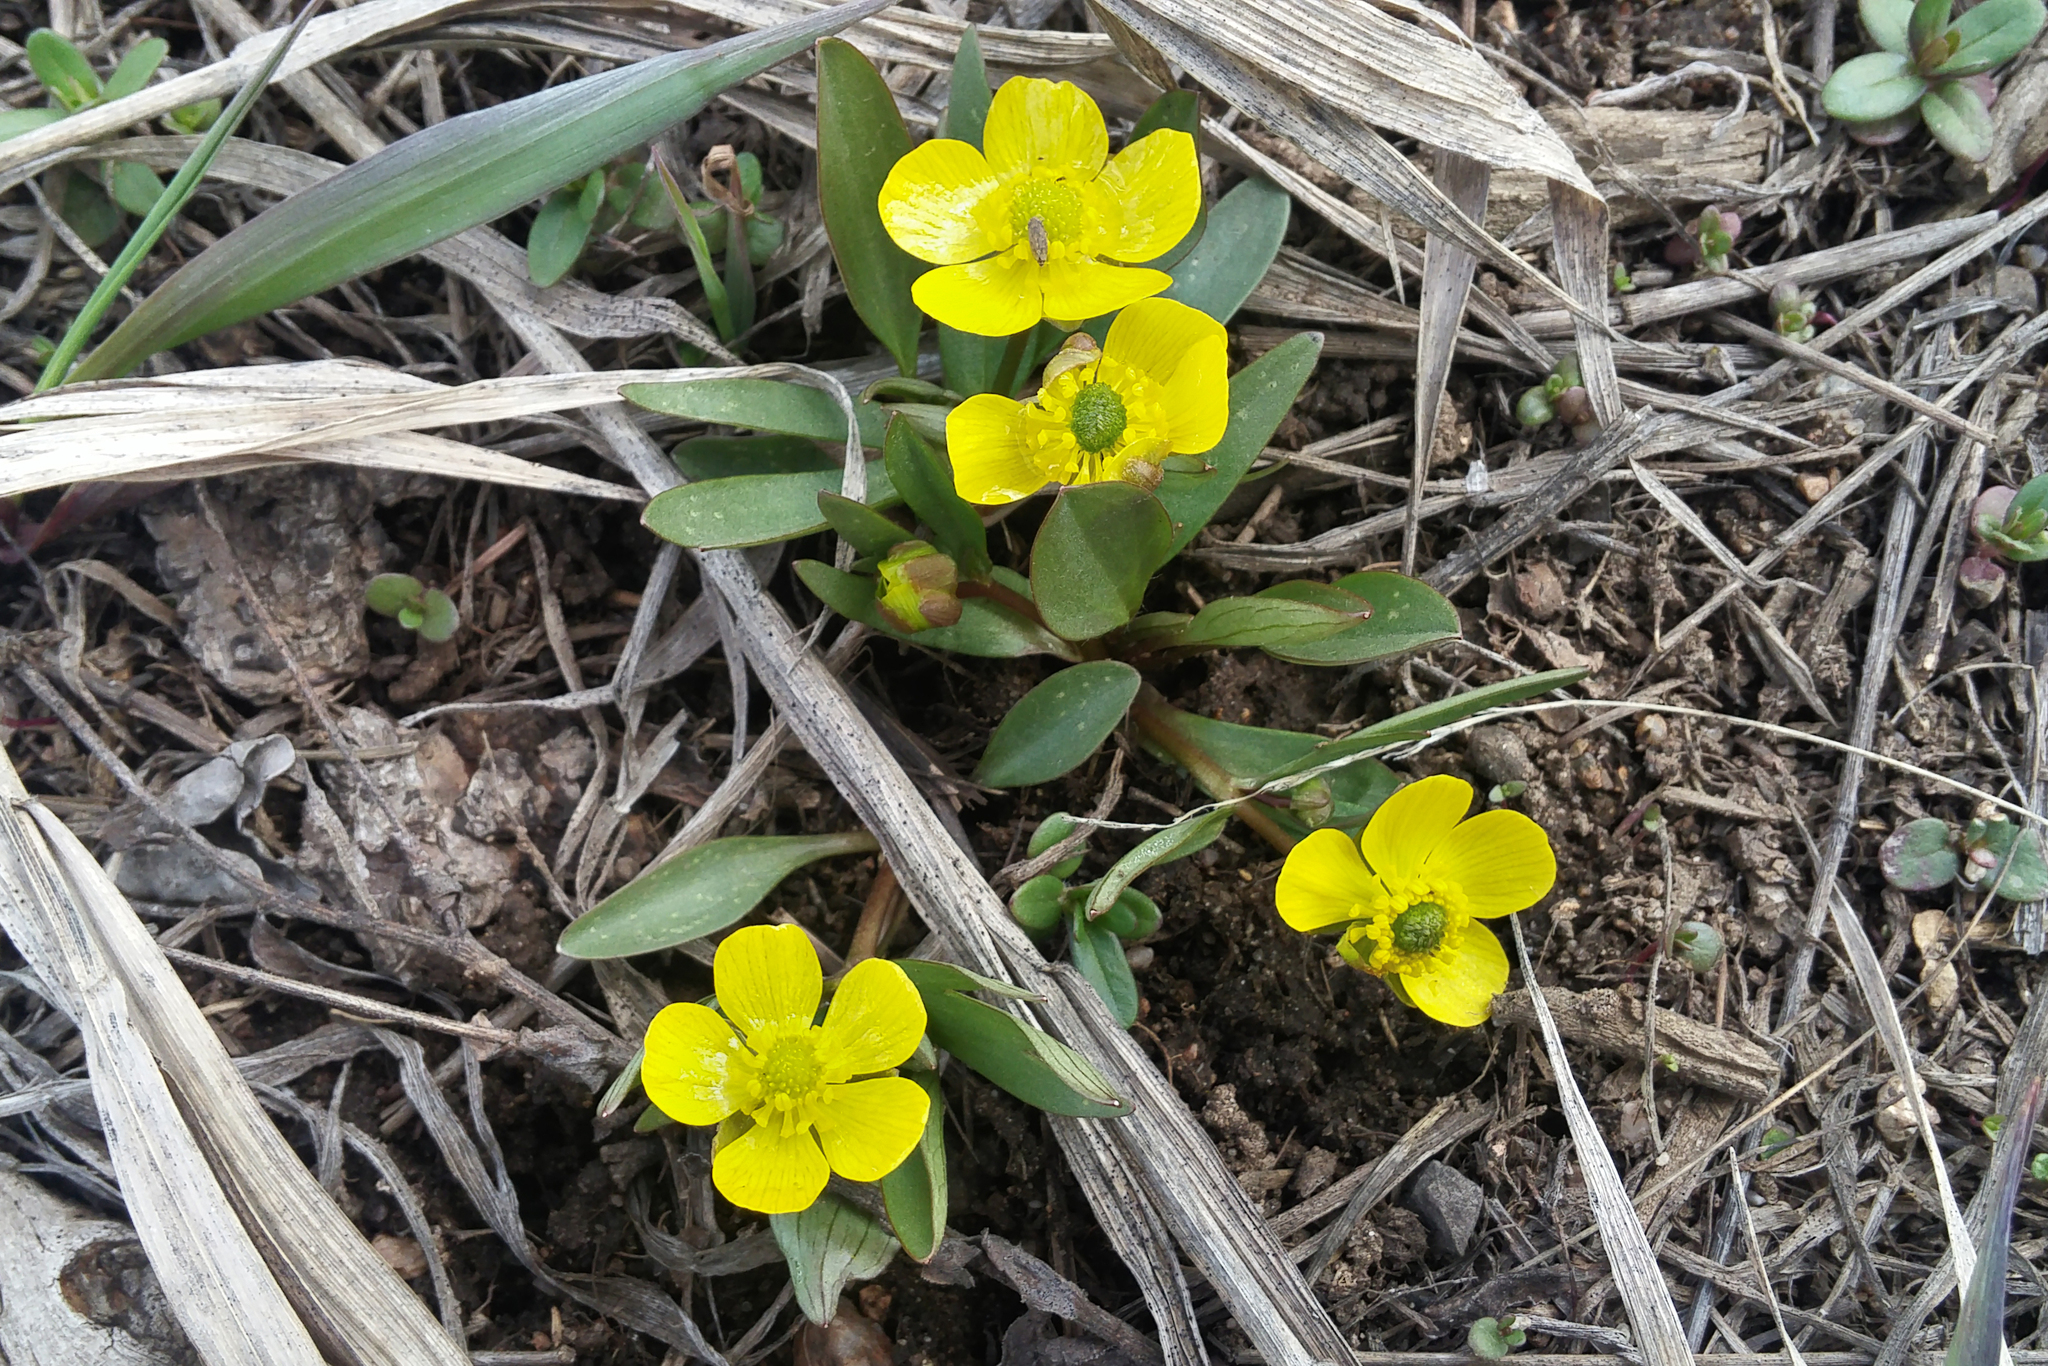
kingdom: Plantae
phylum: Tracheophyta
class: Magnoliopsida
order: Ranunculales
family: Ranunculaceae
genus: Ranunculus
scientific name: Ranunculus glaberrimus
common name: Sagebrush buttercup
